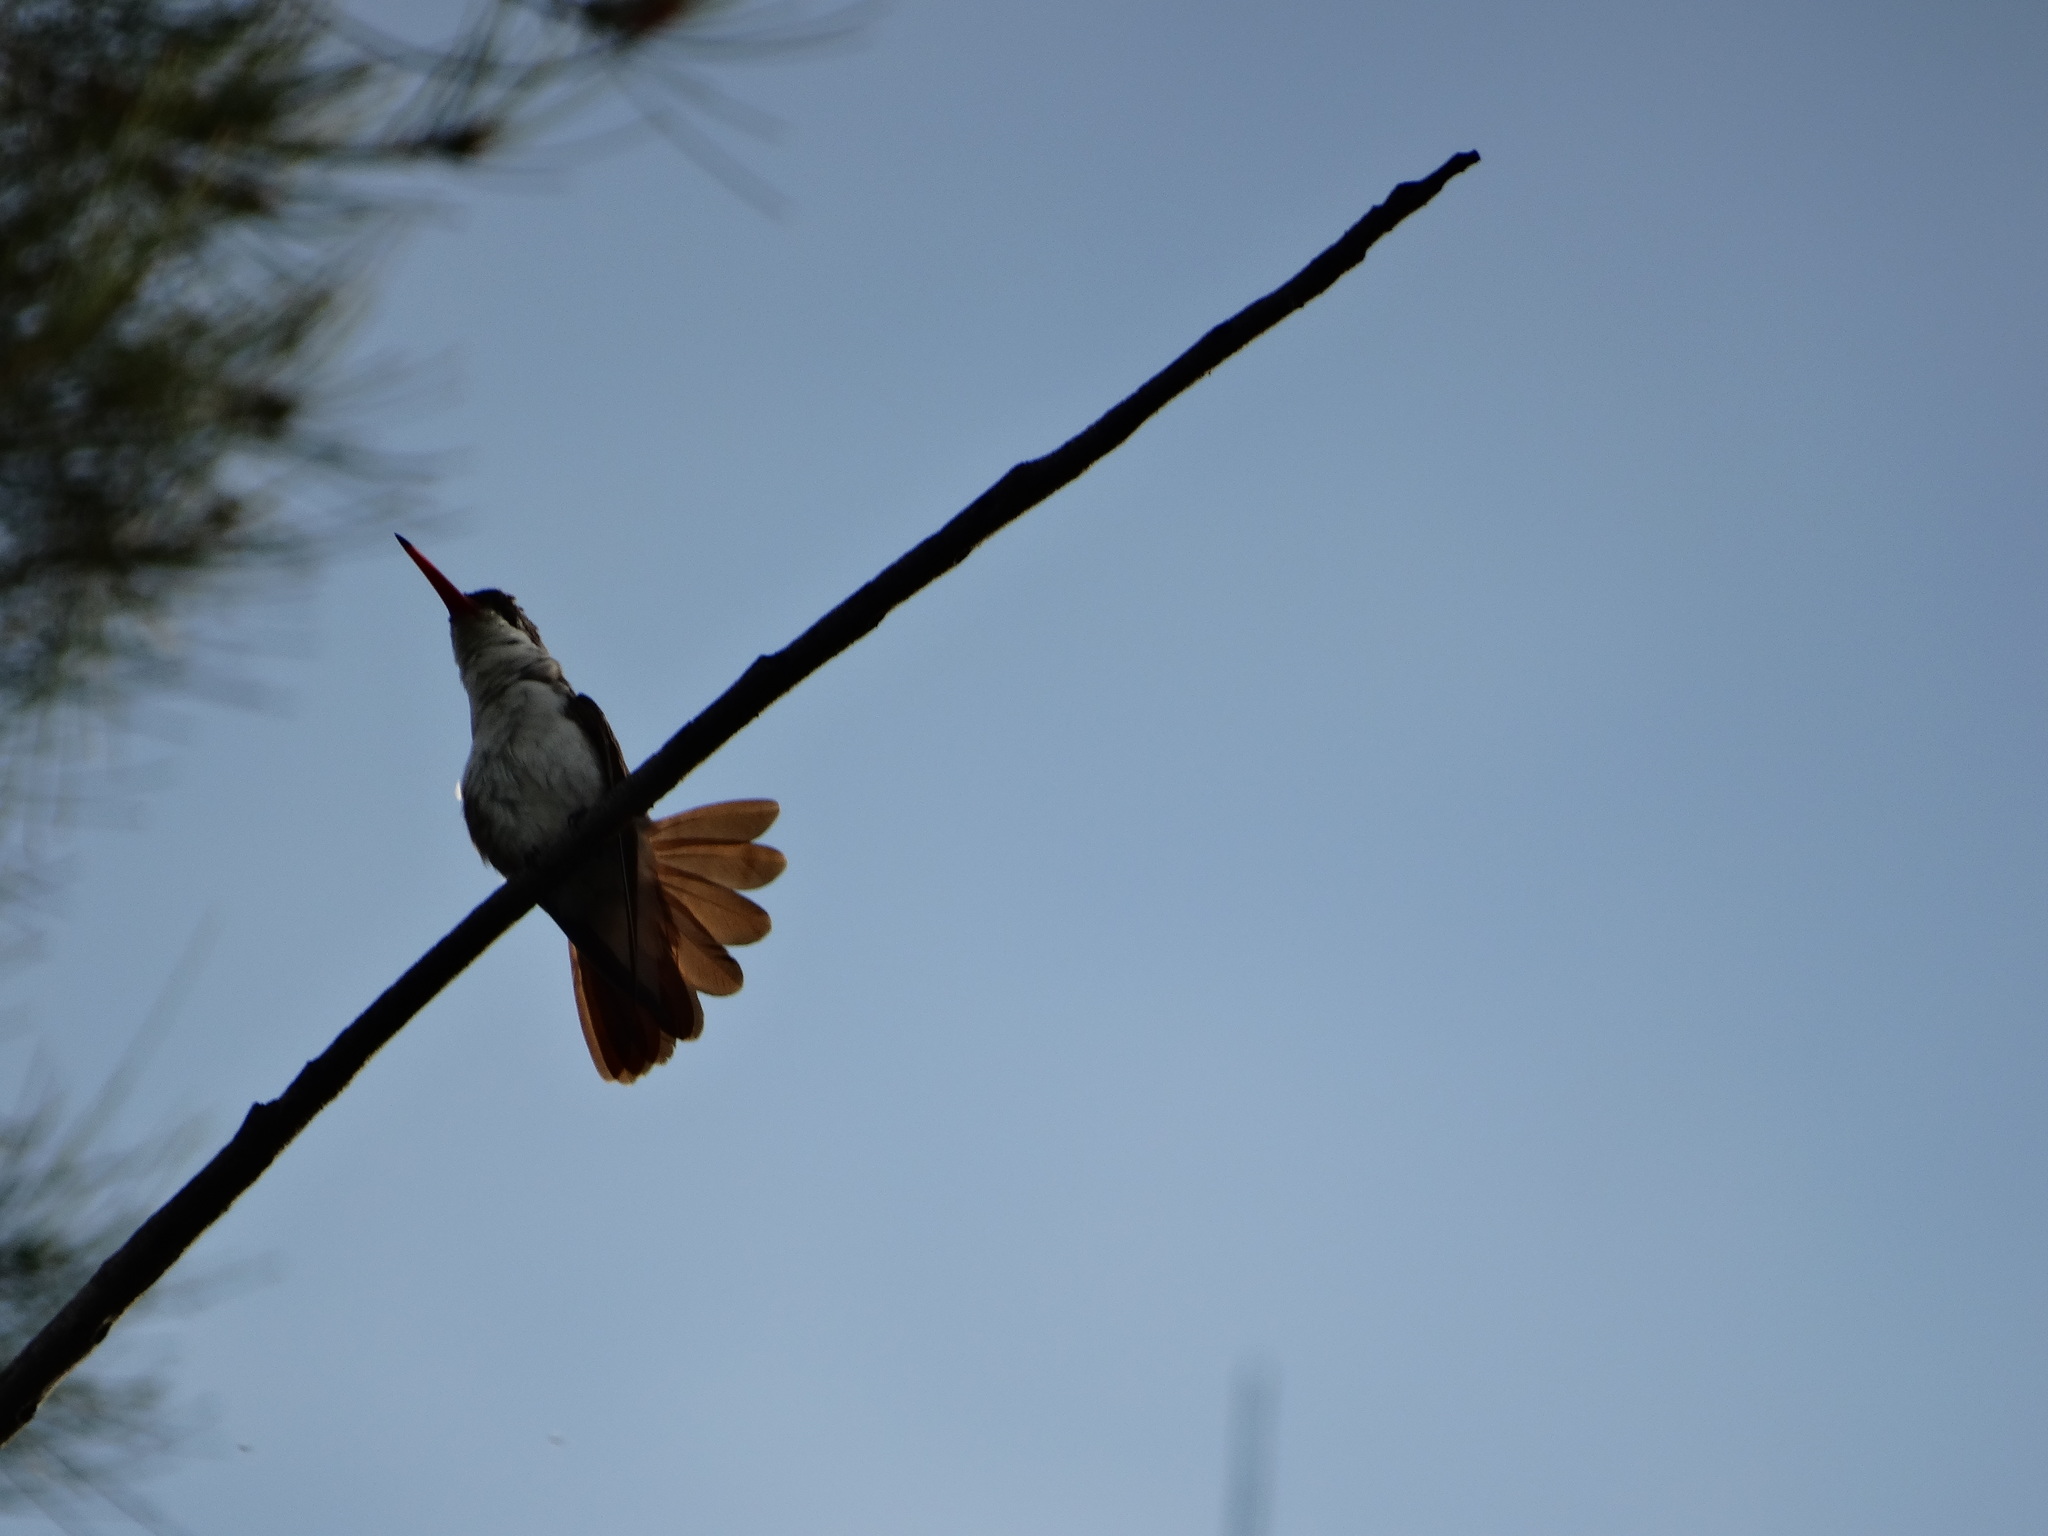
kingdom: Animalia
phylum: Chordata
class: Aves
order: Apodiformes
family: Trochilidae
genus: Leucolia
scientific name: Leucolia violiceps
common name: Violet-crowned hummingbird
